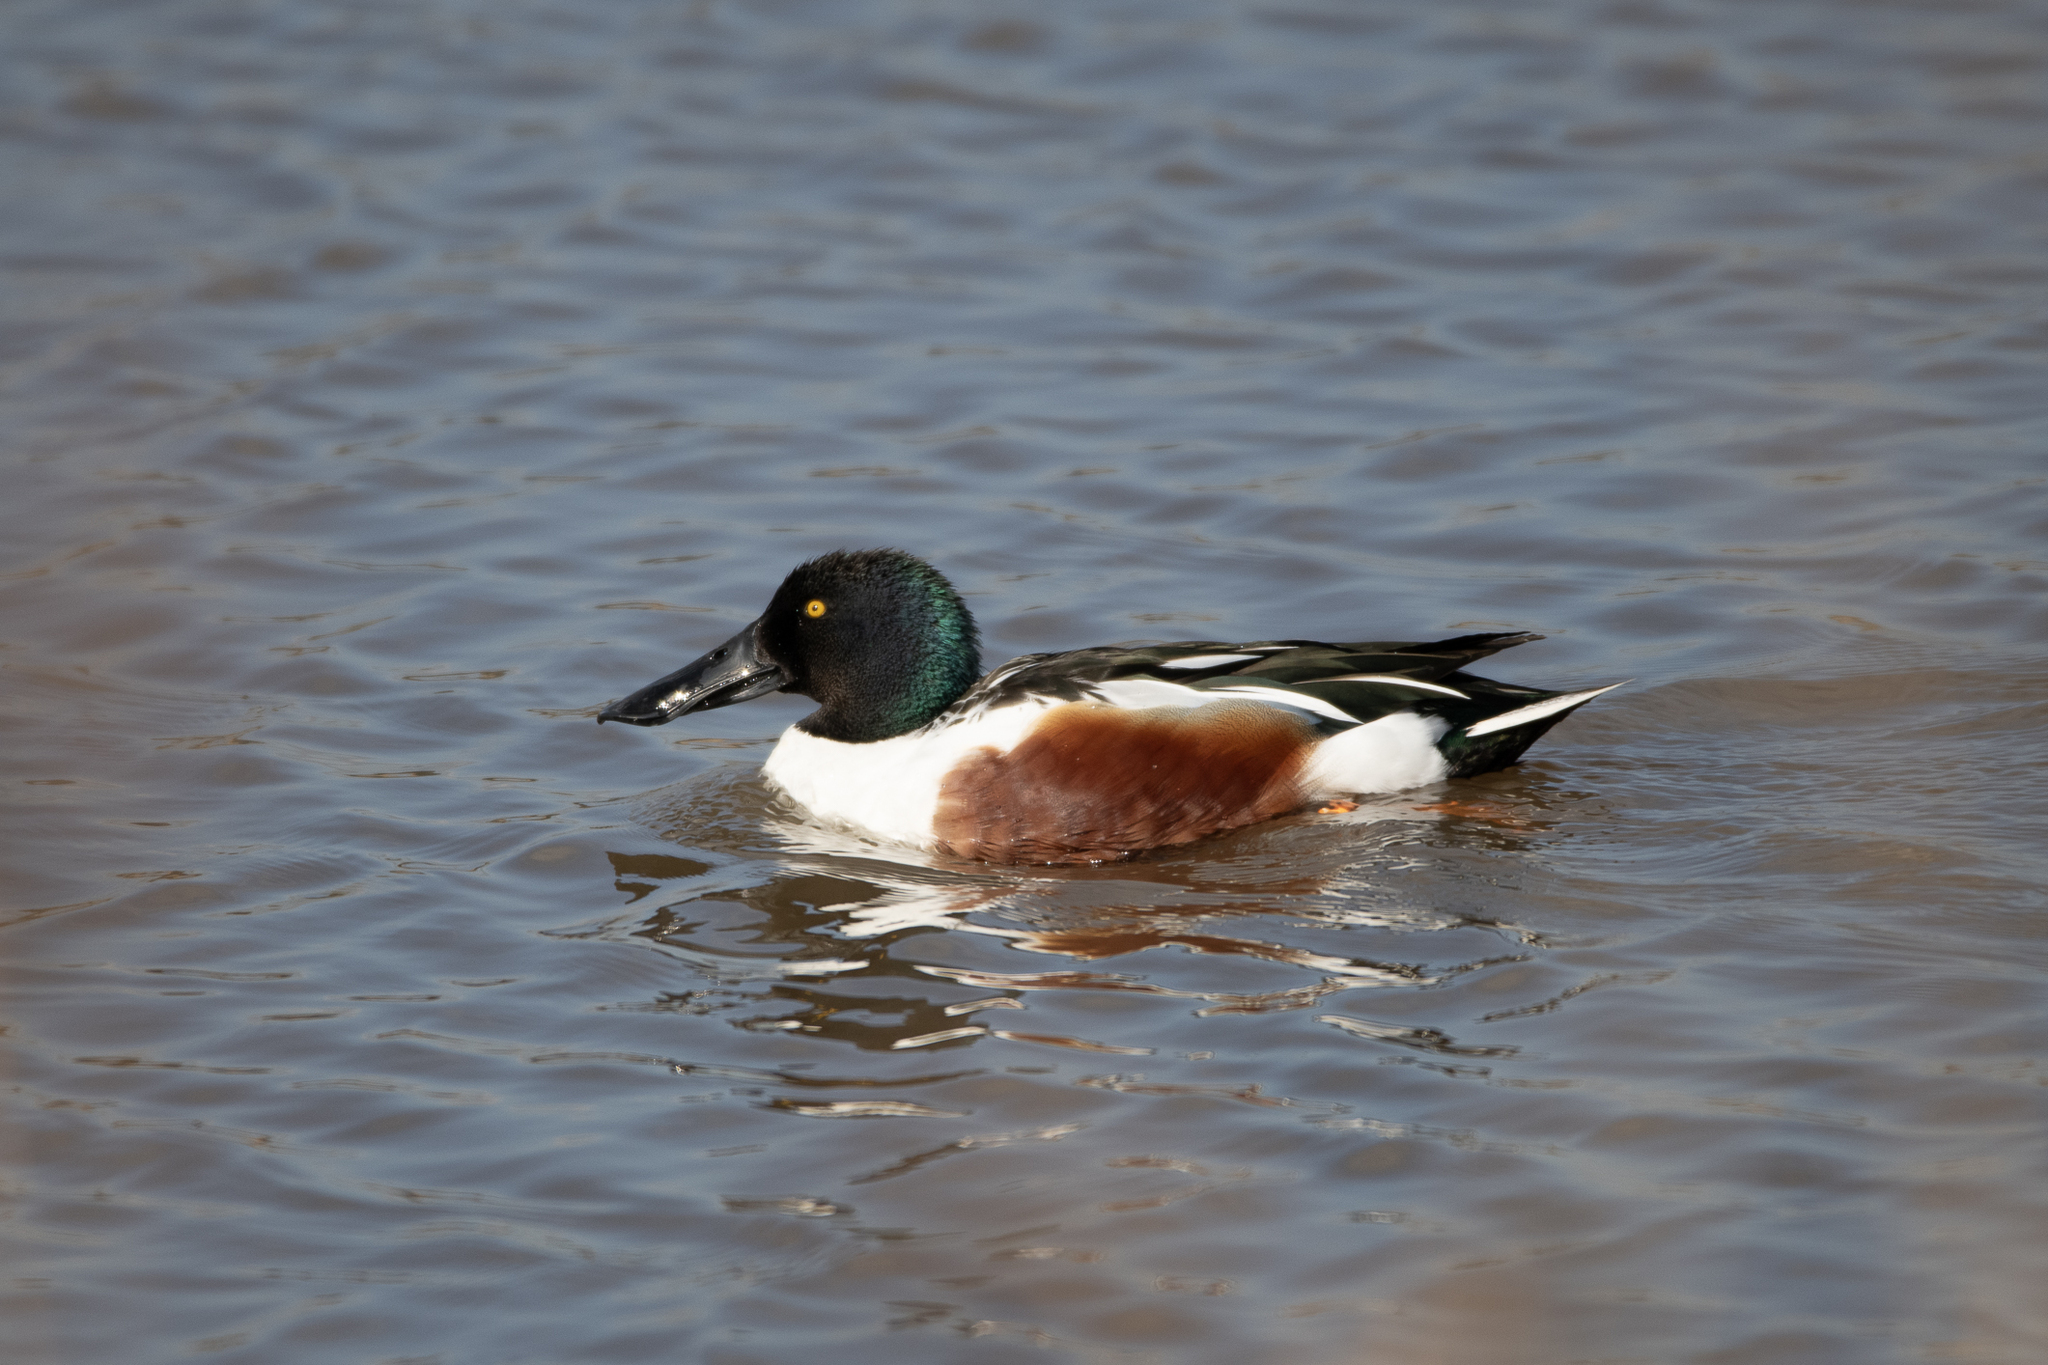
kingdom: Animalia
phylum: Chordata
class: Aves
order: Anseriformes
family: Anatidae
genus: Spatula
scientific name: Spatula clypeata
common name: Northern shoveler
